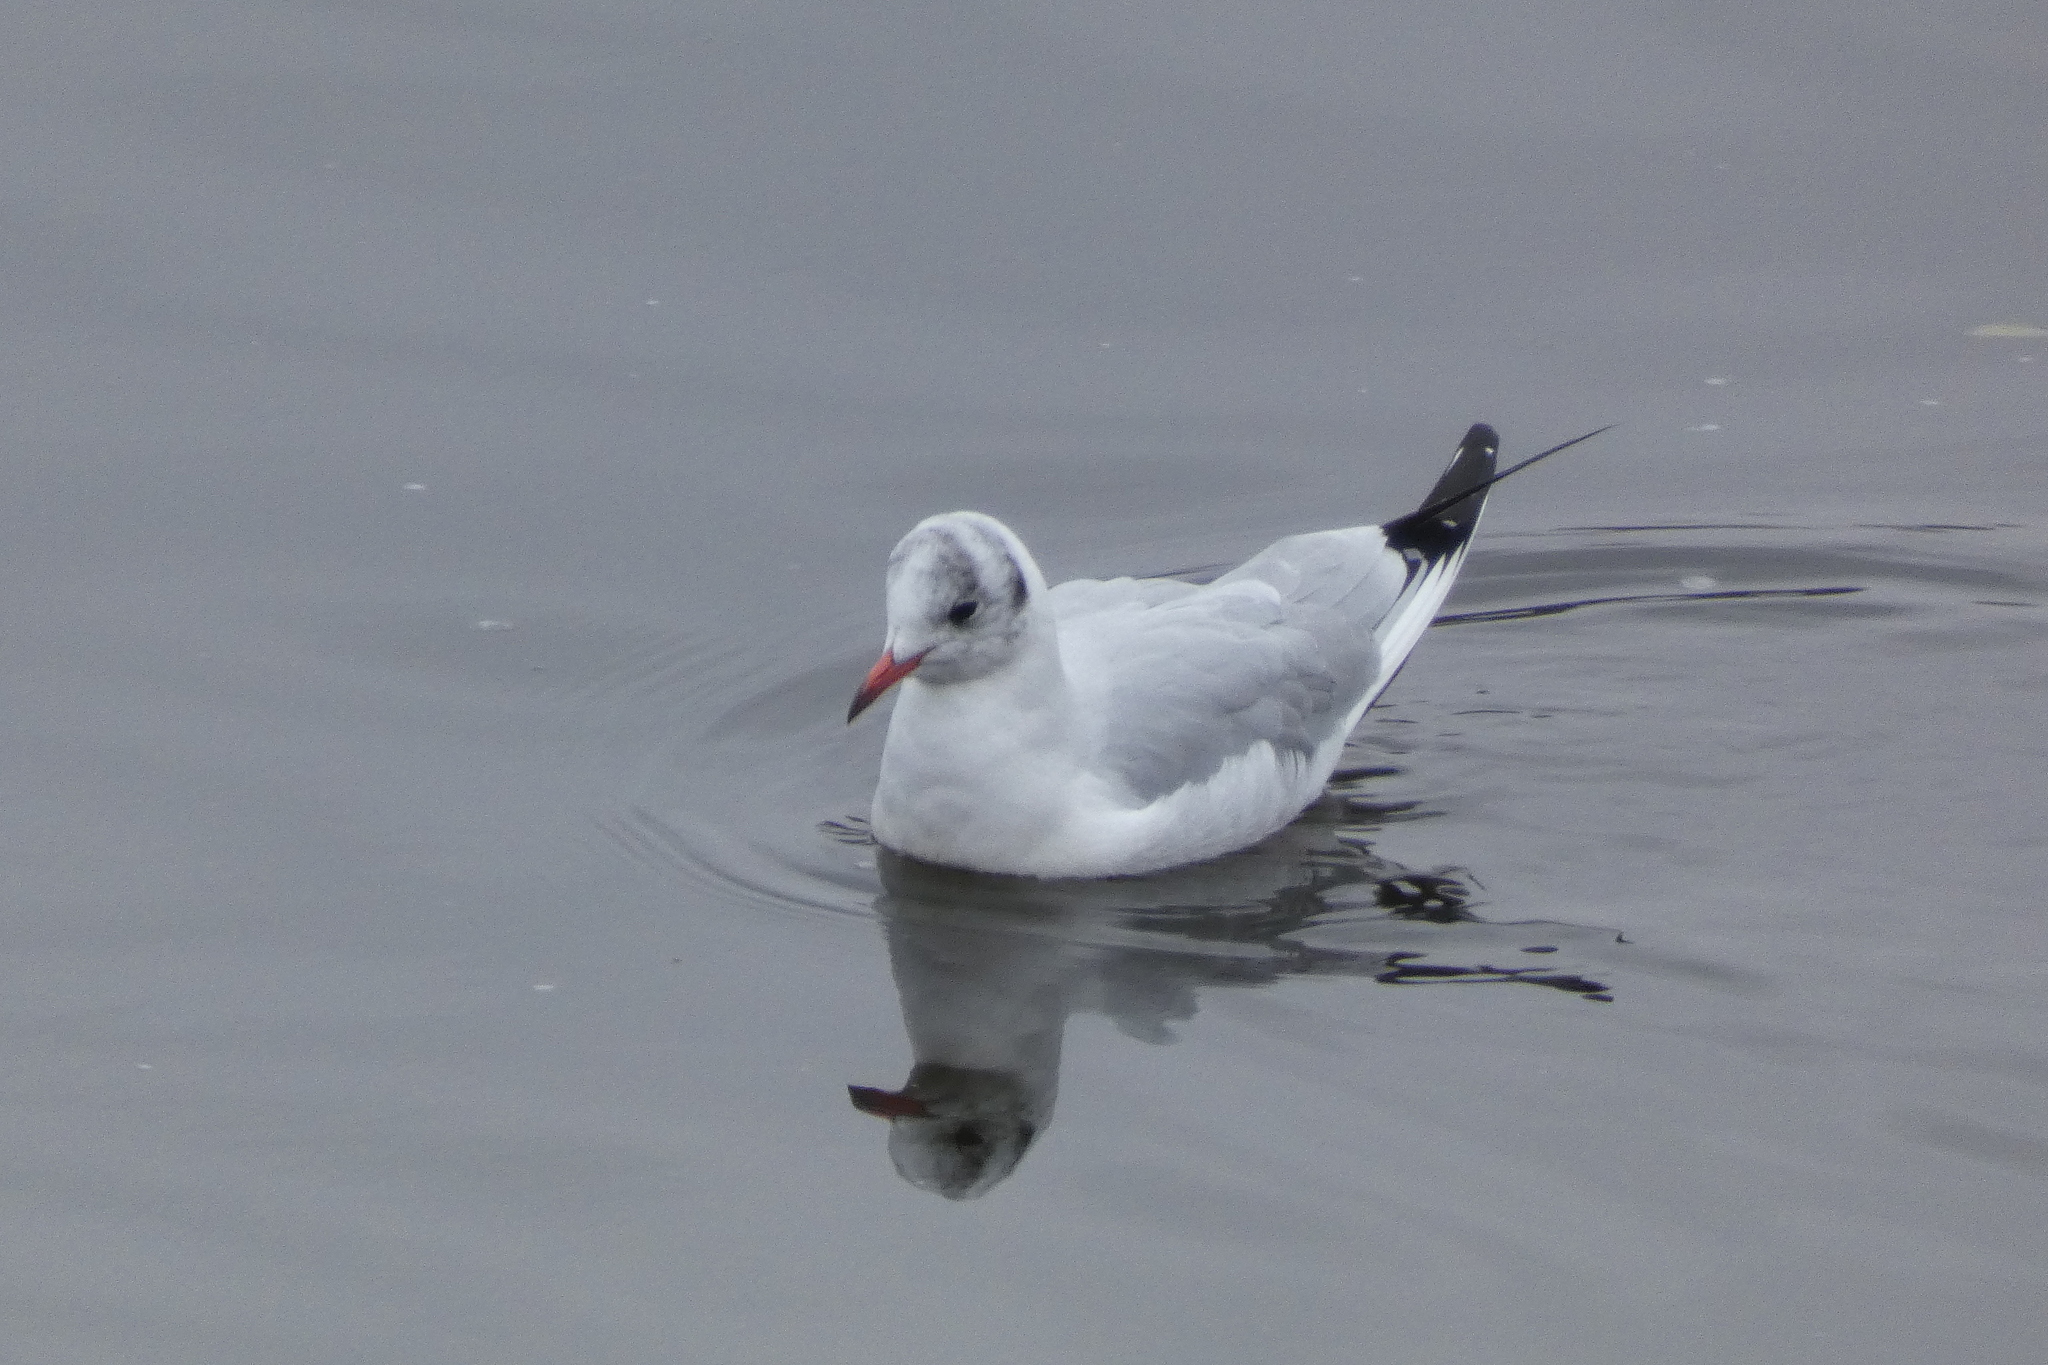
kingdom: Animalia
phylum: Chordata
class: Aves
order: Charadriiformes
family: Laridae
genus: Chroicocephalus
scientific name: Chroicocephalus ridibundus
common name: Black-headed gull
